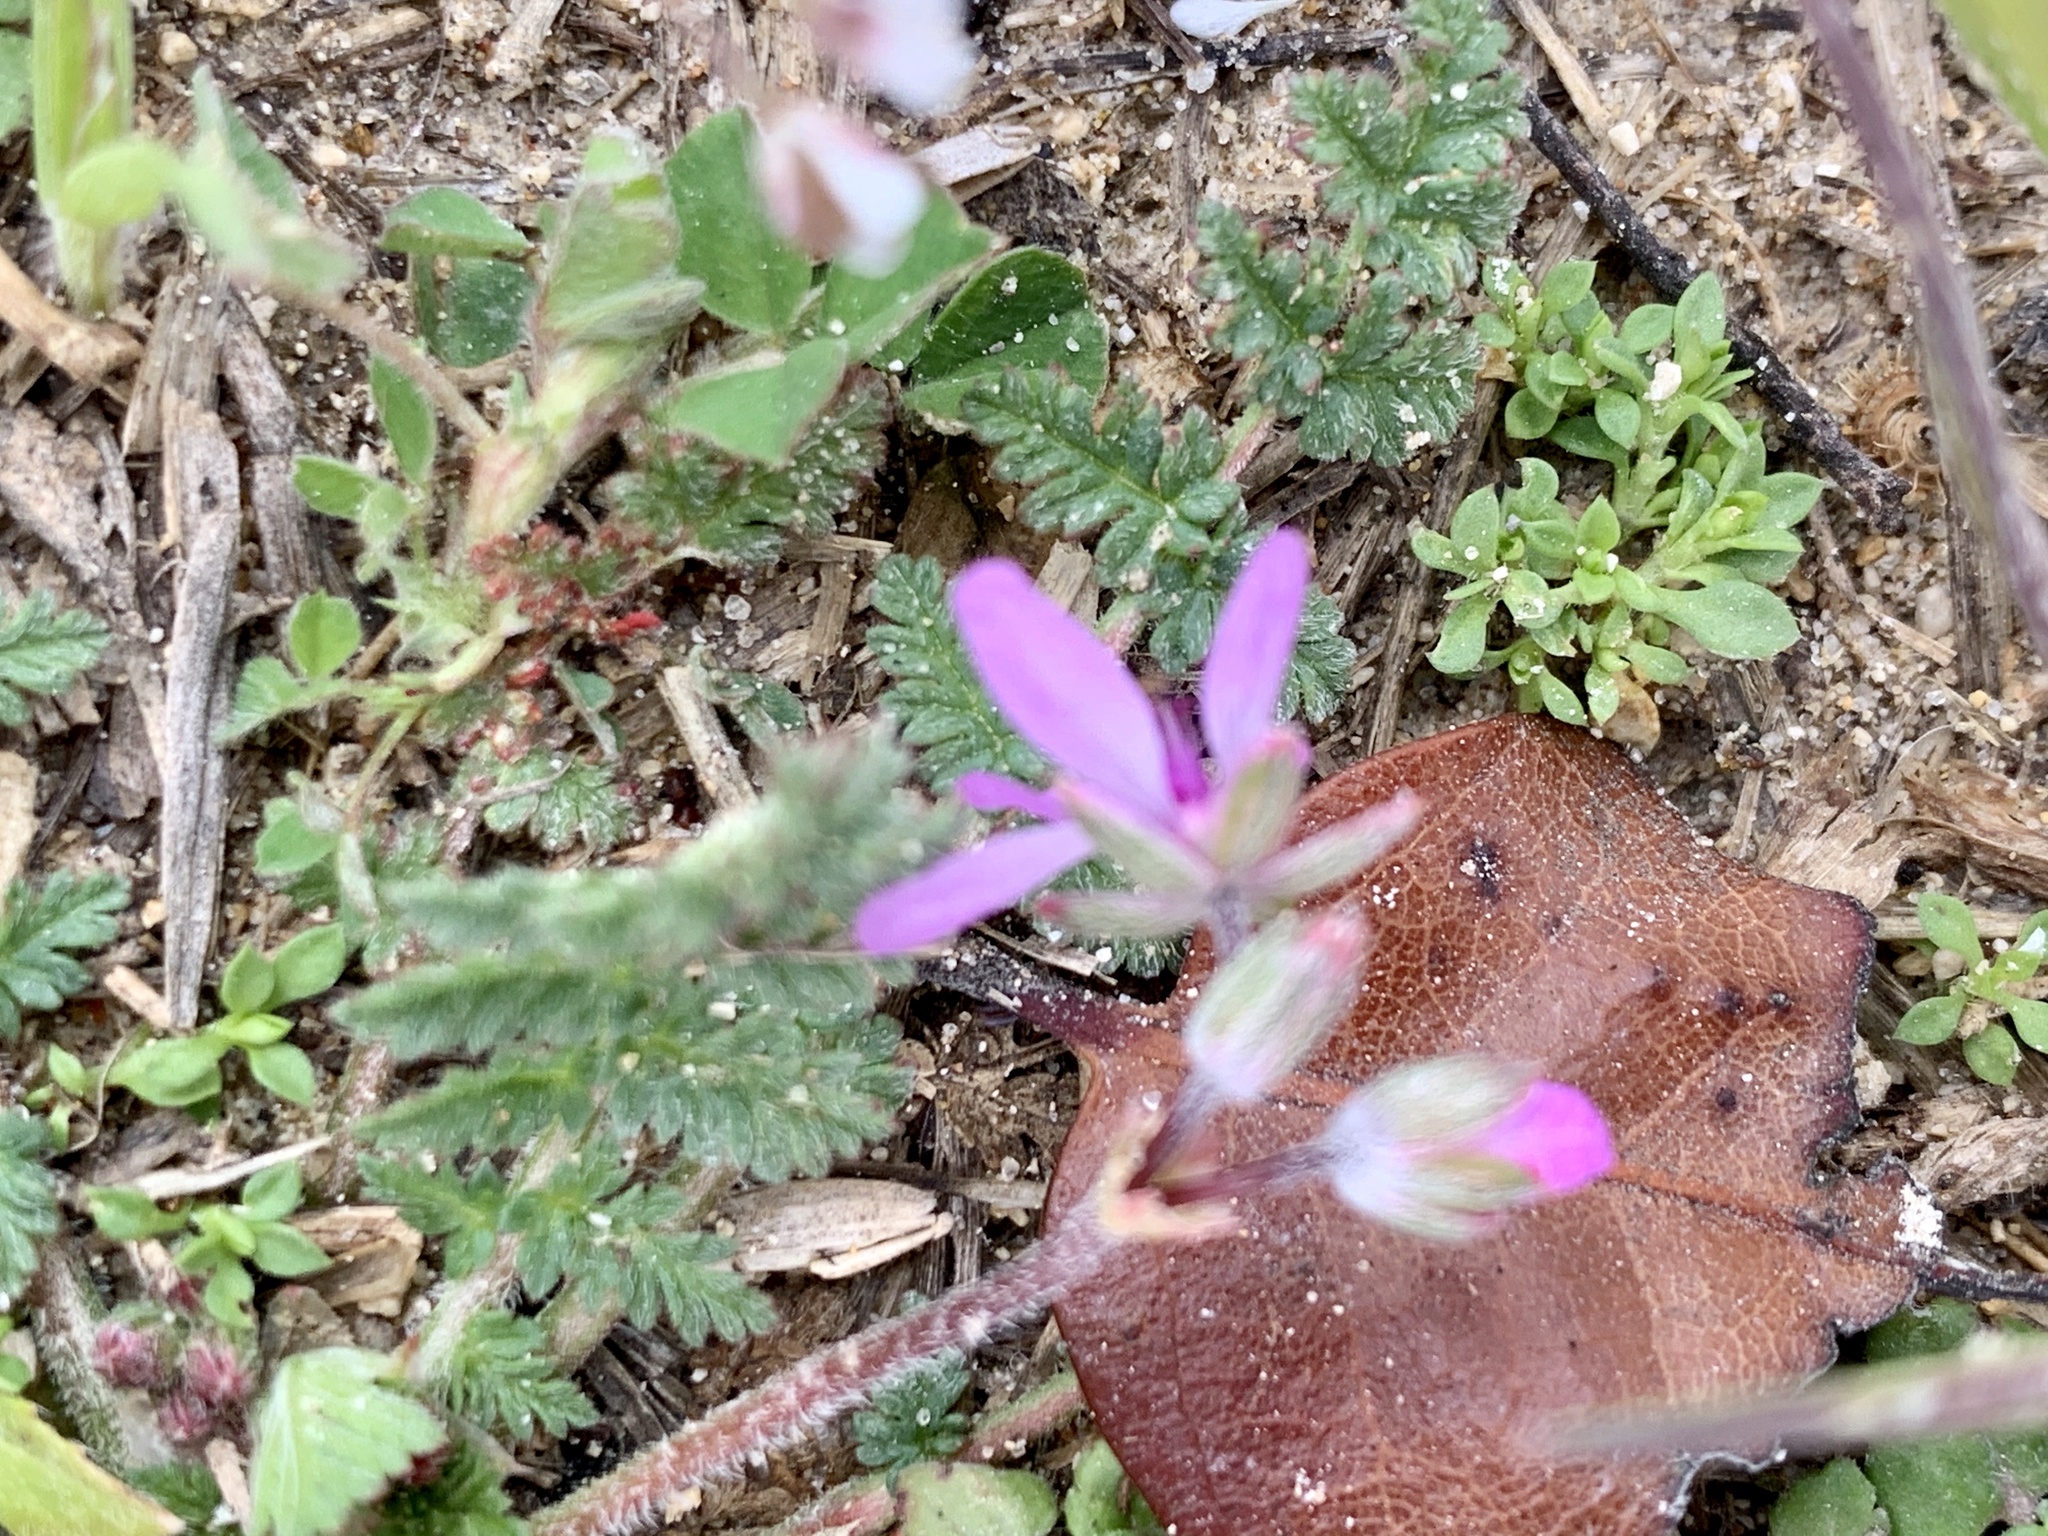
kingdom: Plantae
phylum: Tracheophyta
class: Magnoliopsida
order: Geraniales
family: Geraniaceae
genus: Erodium
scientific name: Erodium cicutarium
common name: Common stork's-bill
